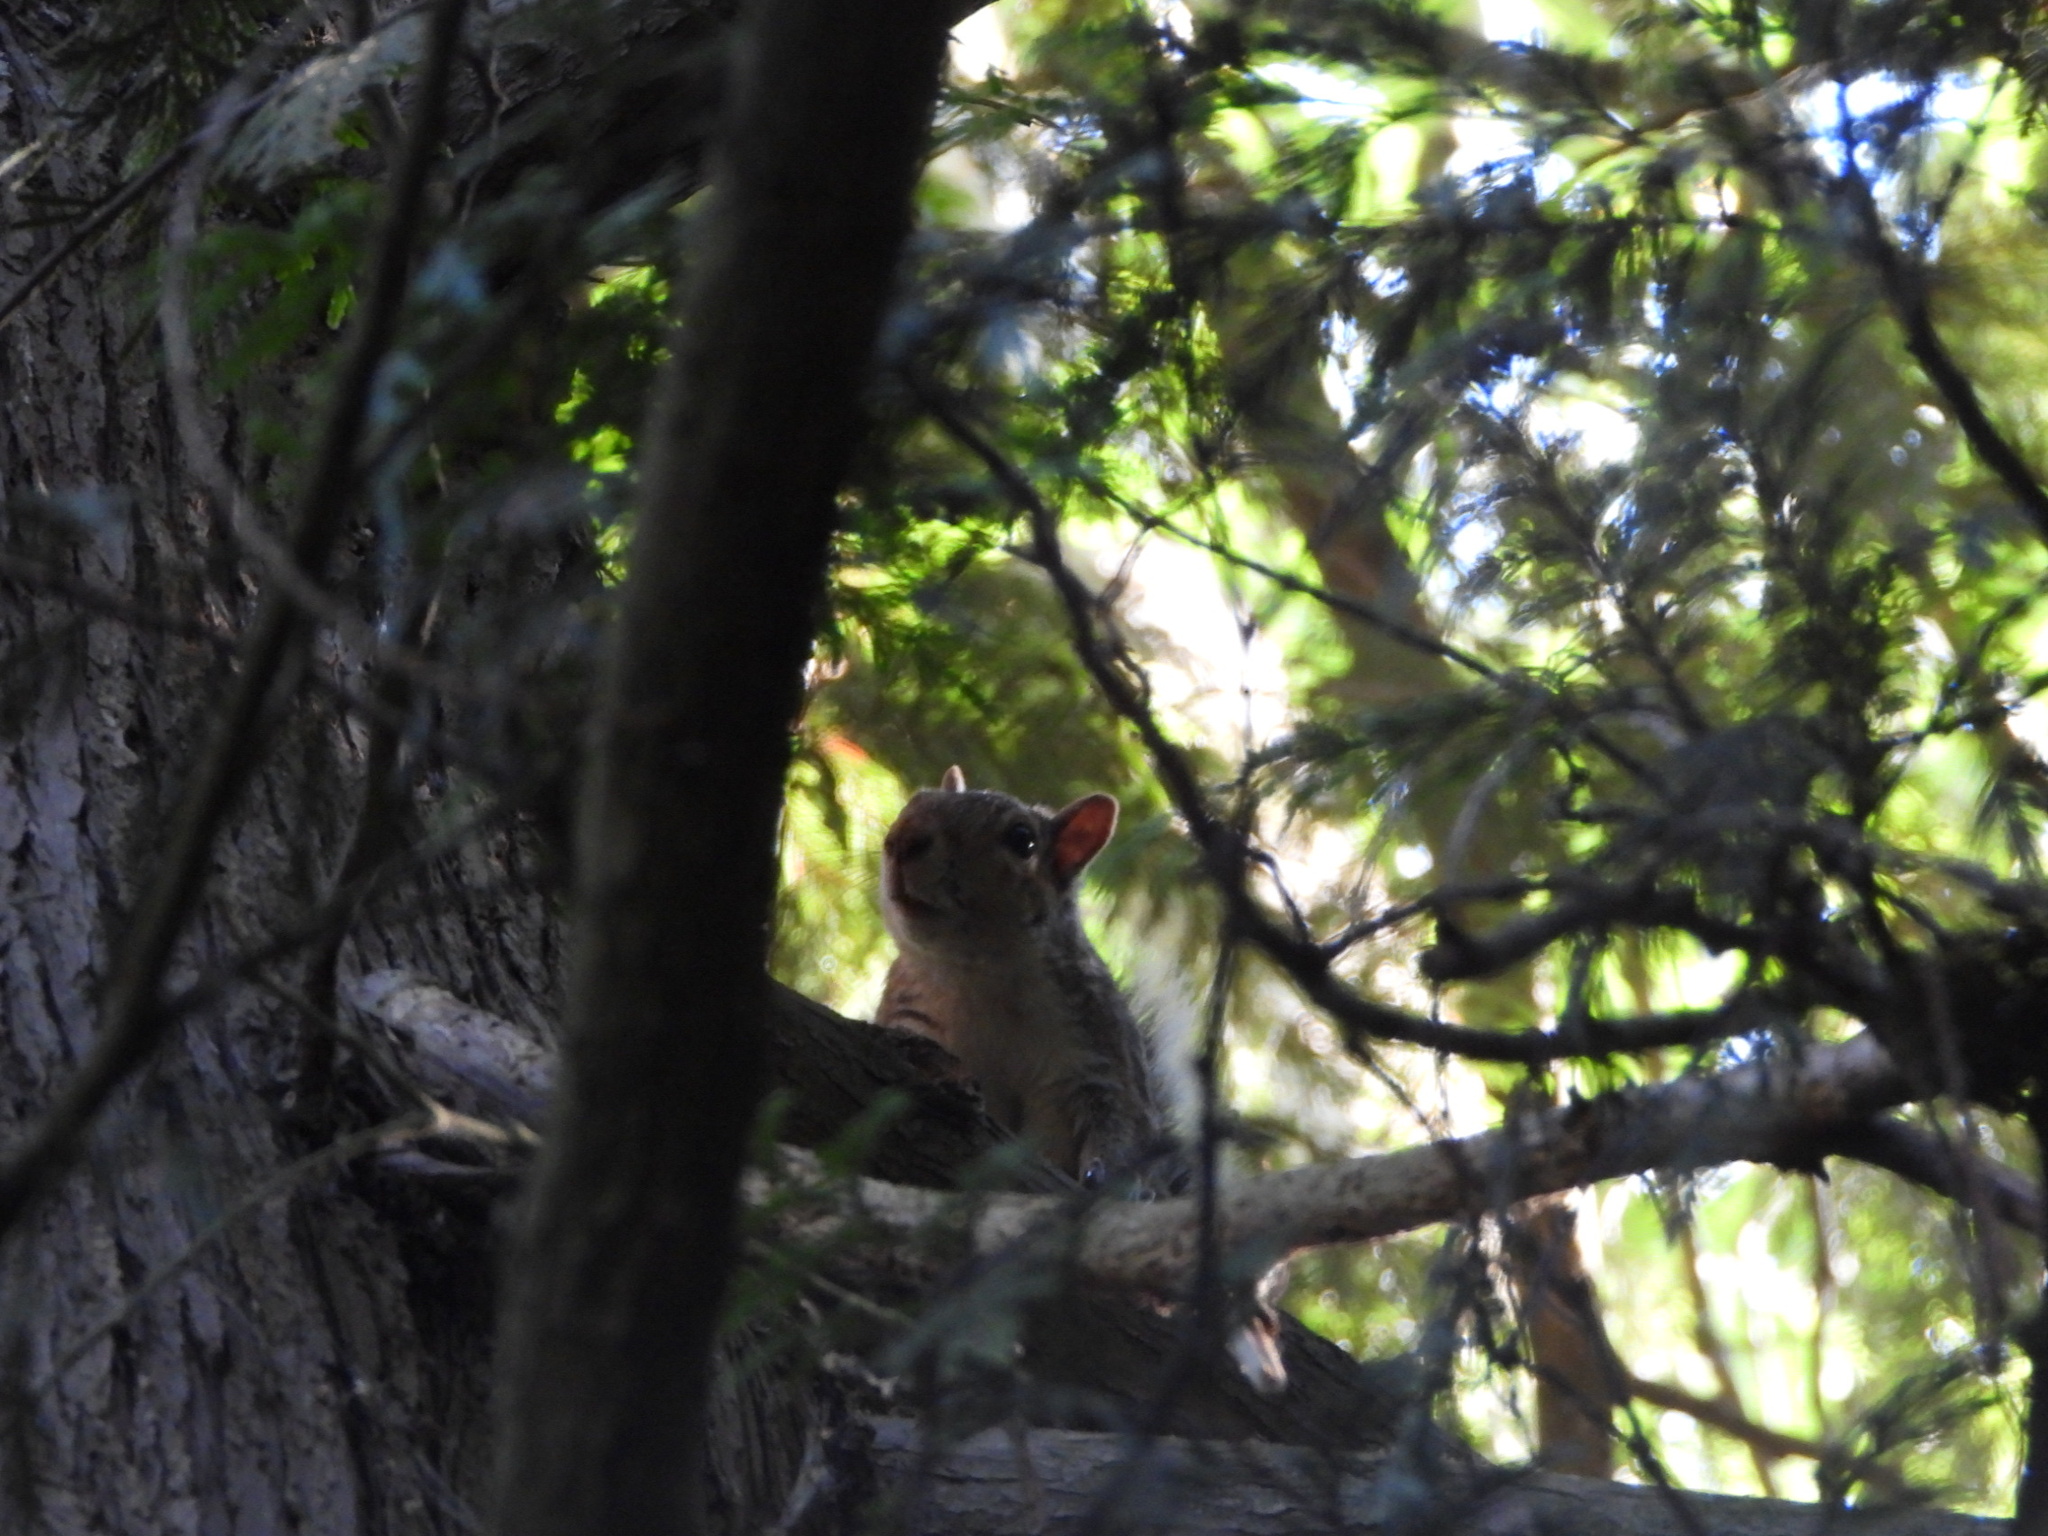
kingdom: Animalia
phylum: Chordata
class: Mammalia
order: Rodentia
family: Sciuridae
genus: Sciurus
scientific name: Sciurus carolinensis
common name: Eastern gray squirrel
